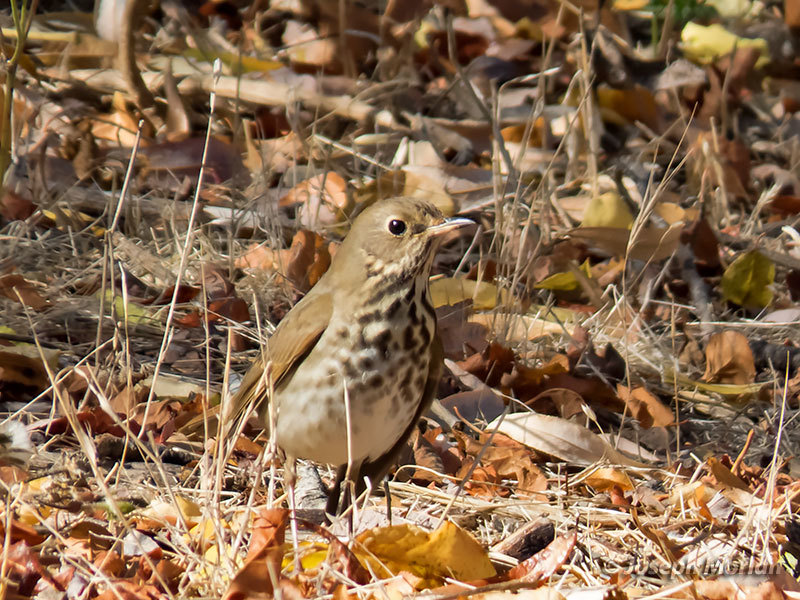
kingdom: Animalia
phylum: Chordata
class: Aves
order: Passeriformes
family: Turdidae
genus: Catharus
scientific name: Catharus guttatus
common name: Hermit thrush
